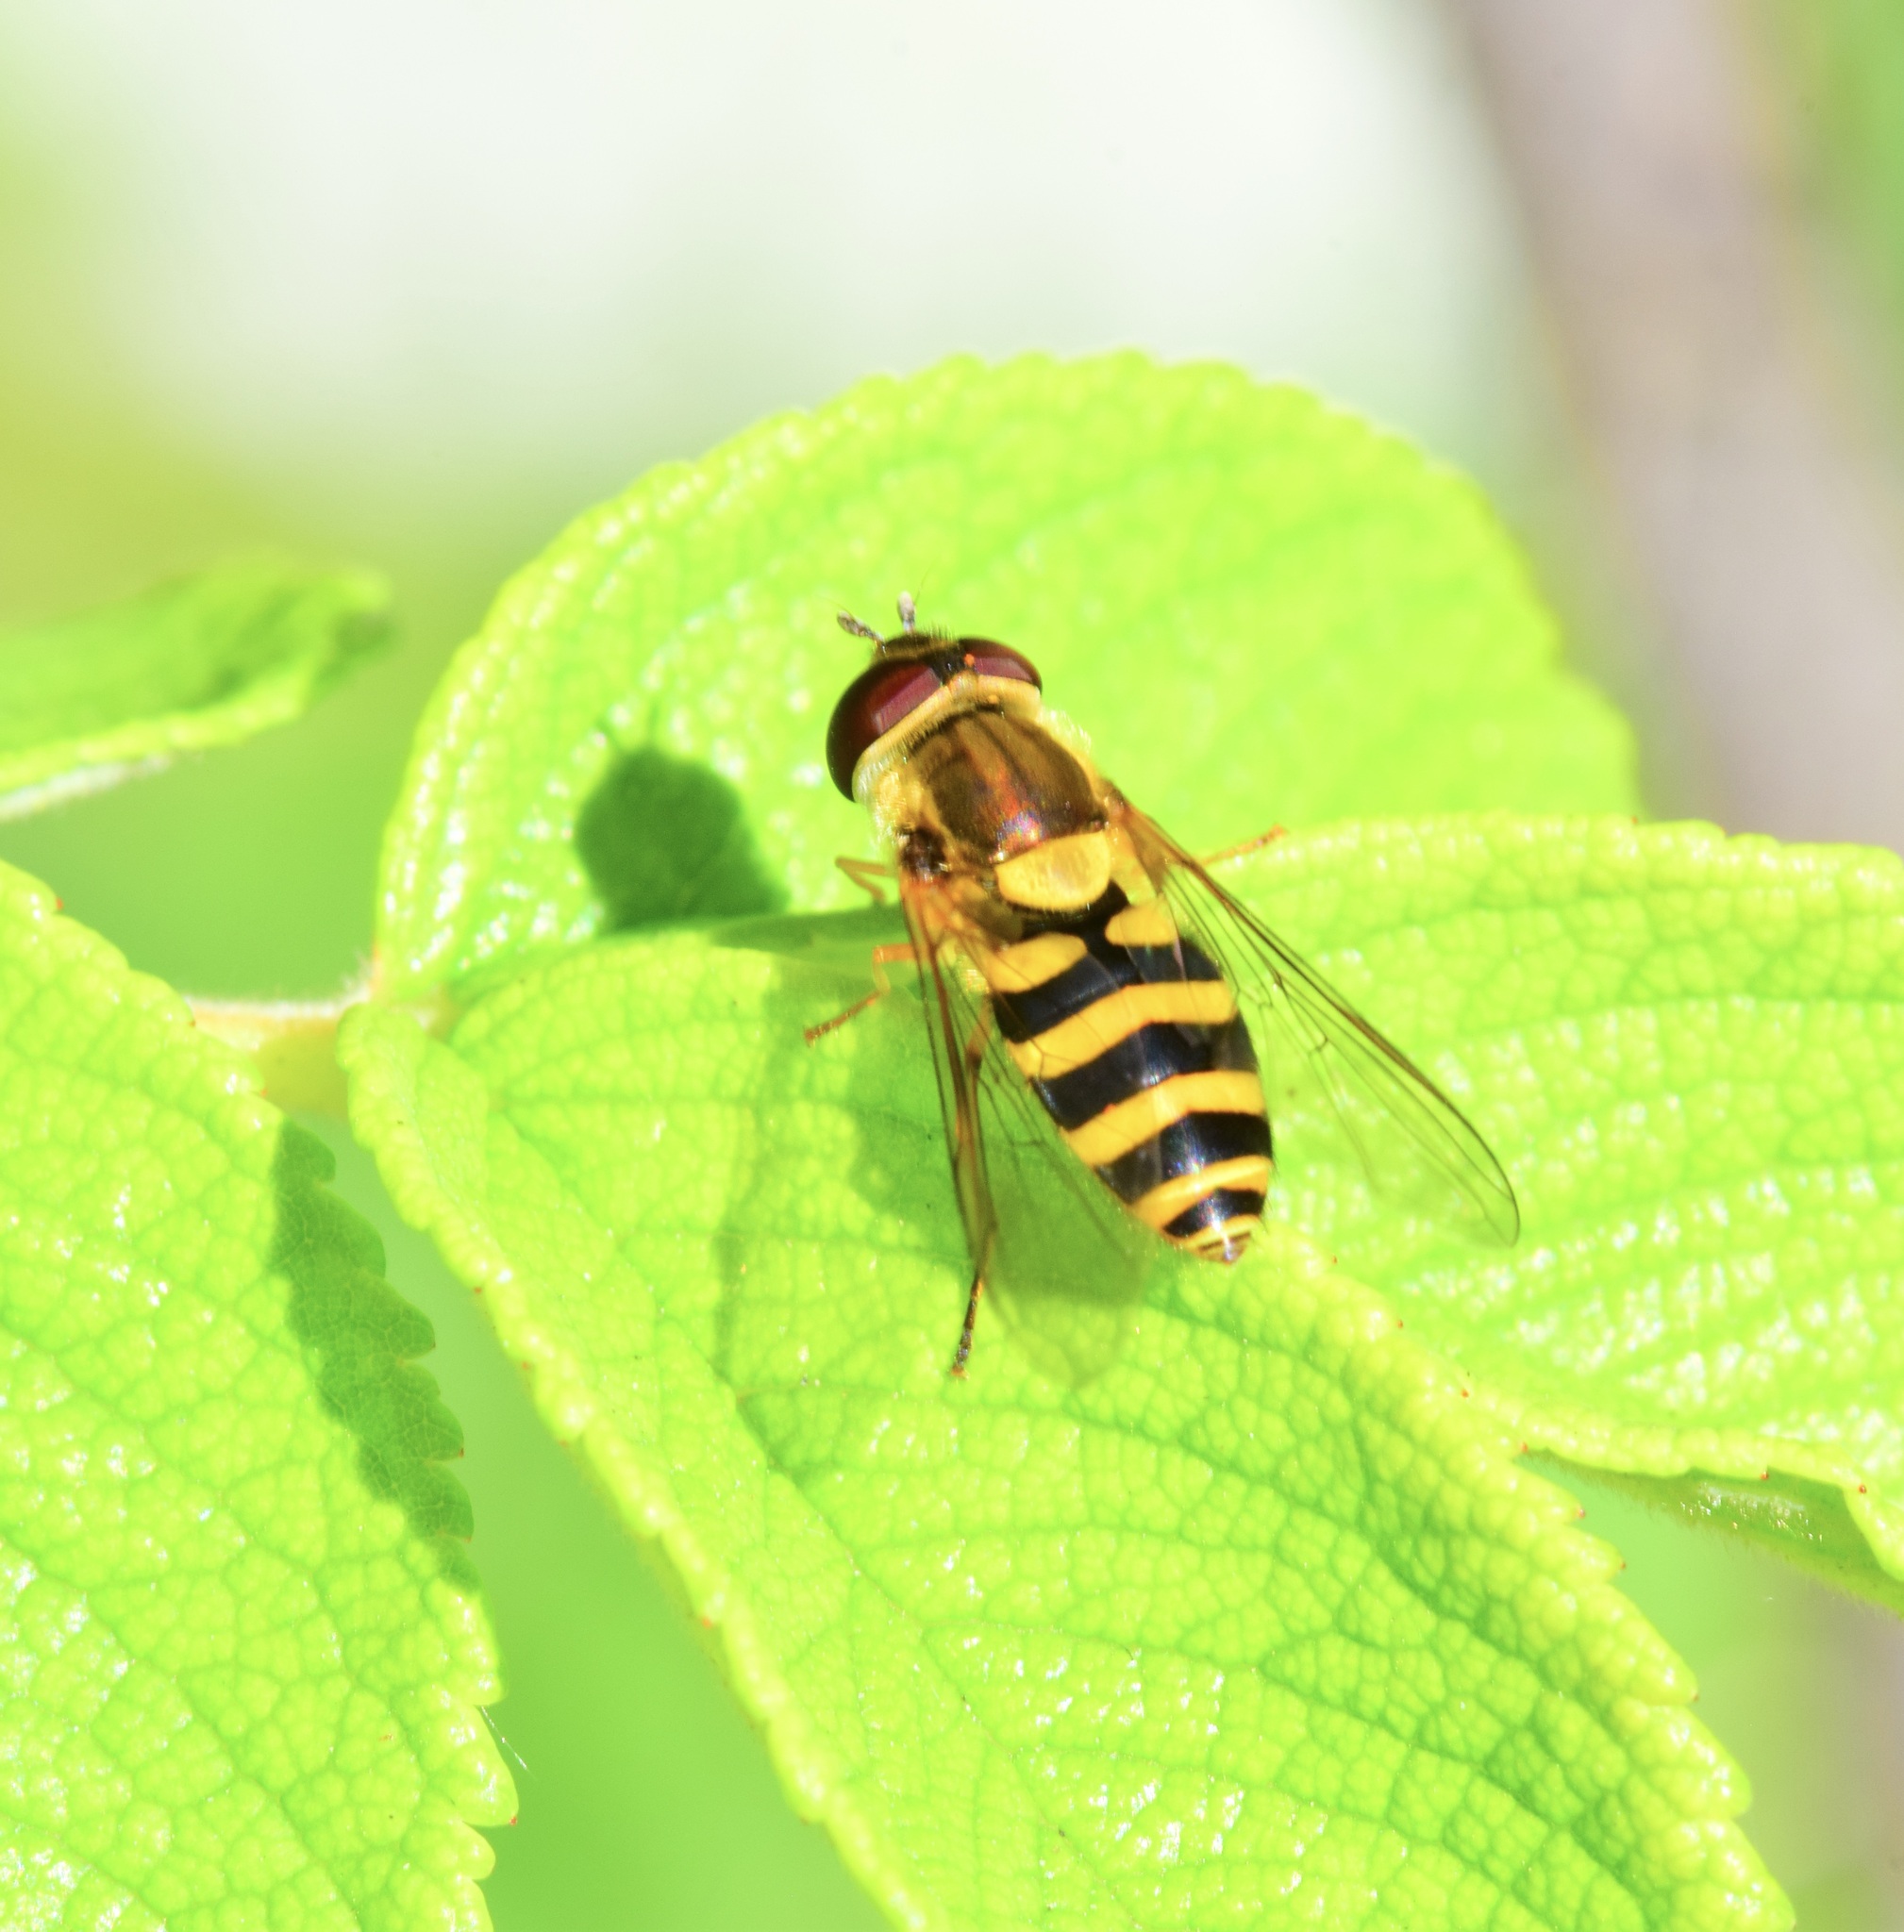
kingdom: Animalia
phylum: Arthropoda
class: Insecta
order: Diptera
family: Syrphidae
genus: Syrphus
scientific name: Syrphus rectus
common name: Yellow-legged flower fly
